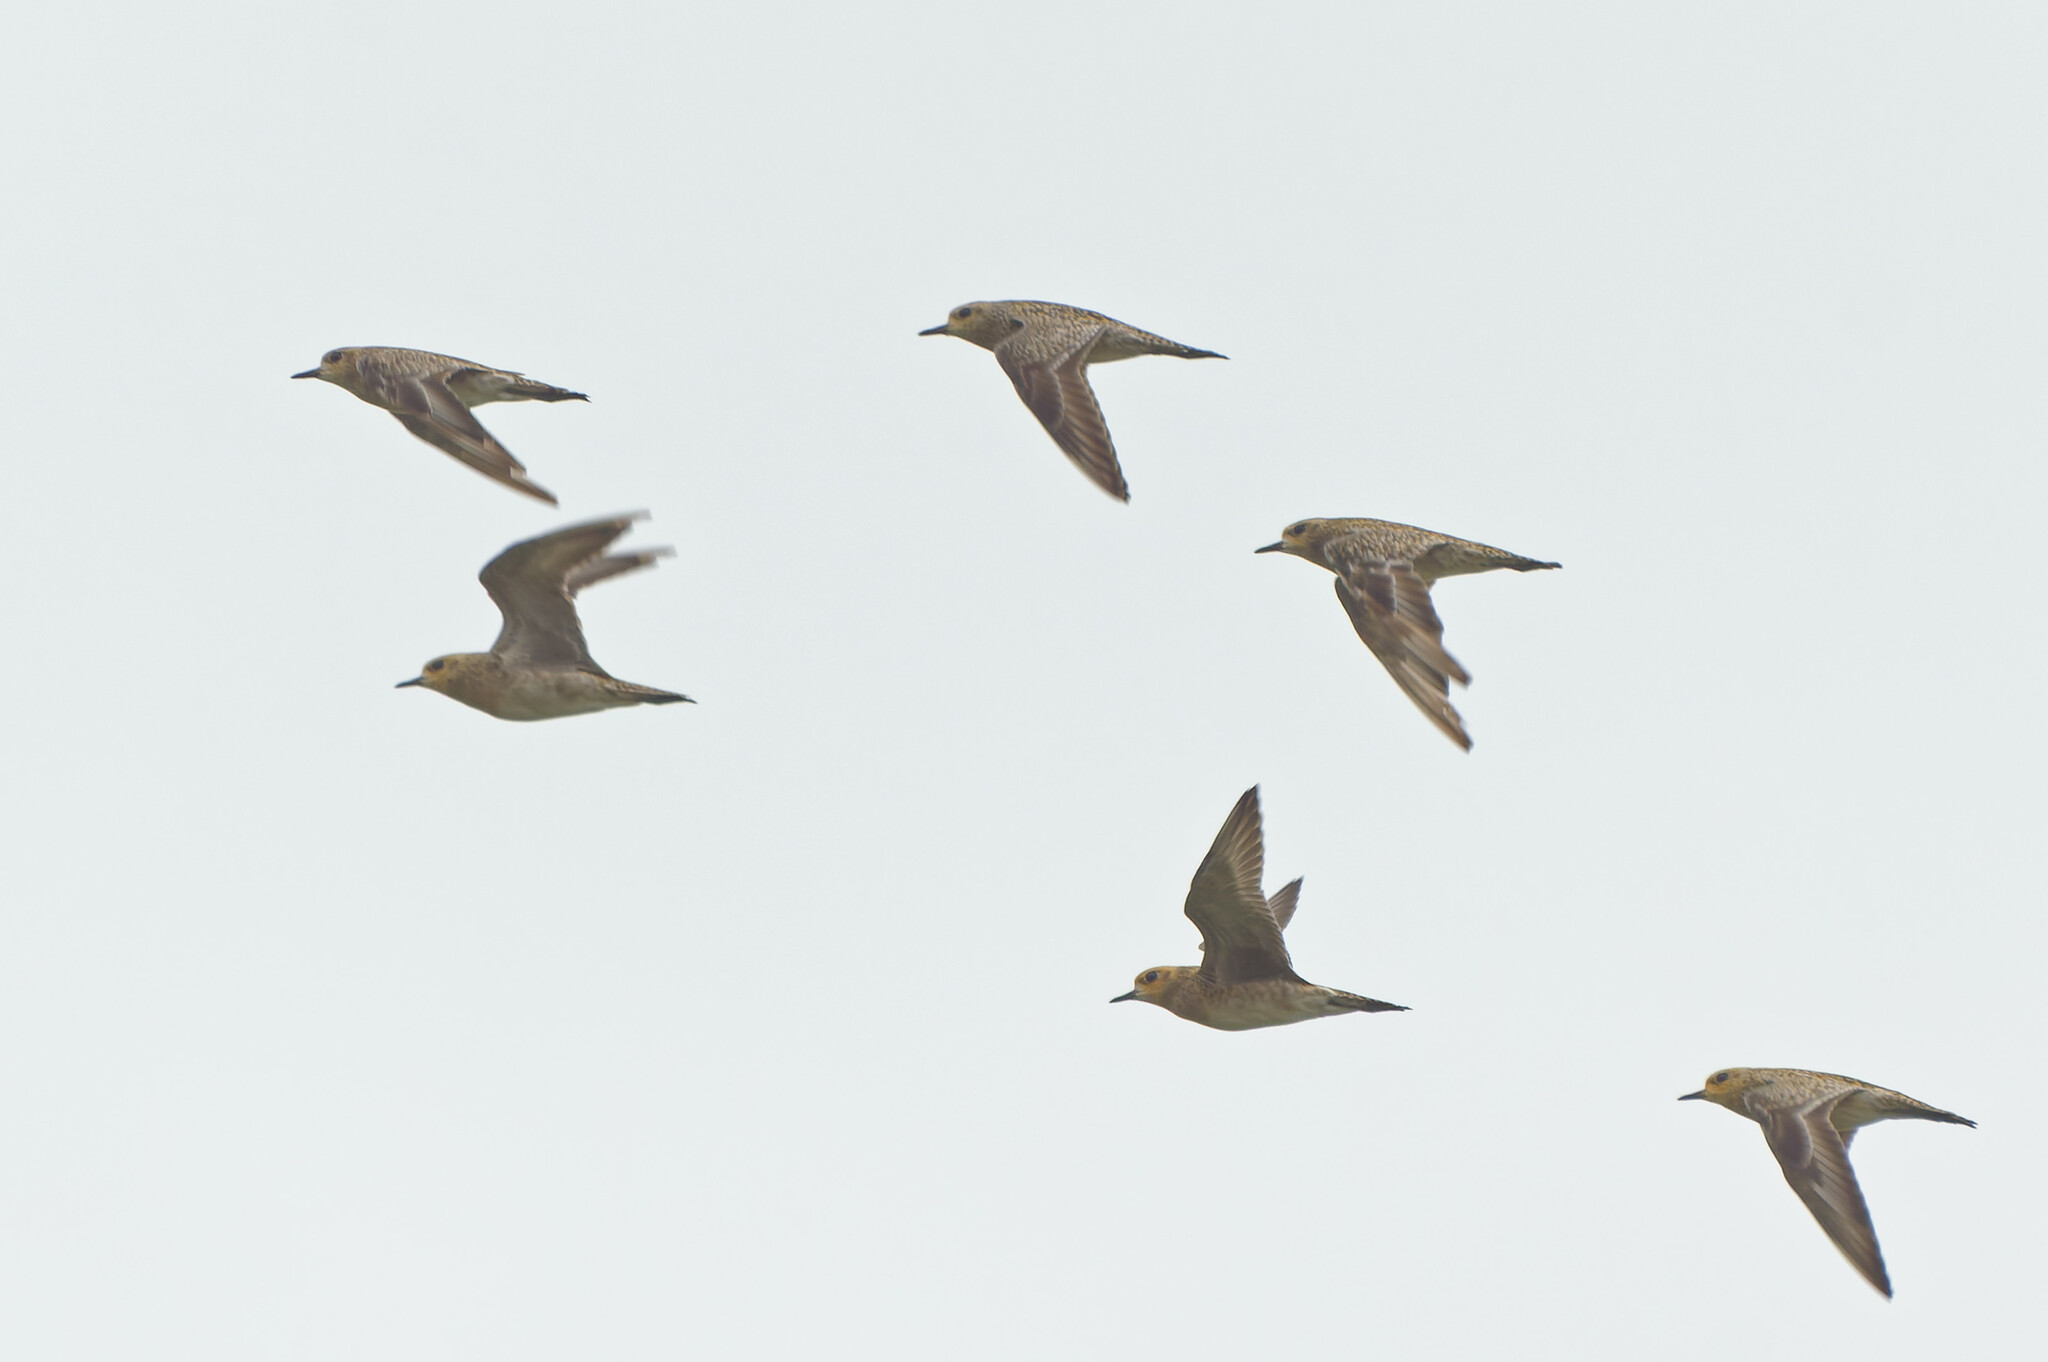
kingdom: Animalia
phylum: Chordata
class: Aves
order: Charadriiformes
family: Charadriidae
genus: Pluvialis
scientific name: Pluvialis fulva
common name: Pacific golden plover
